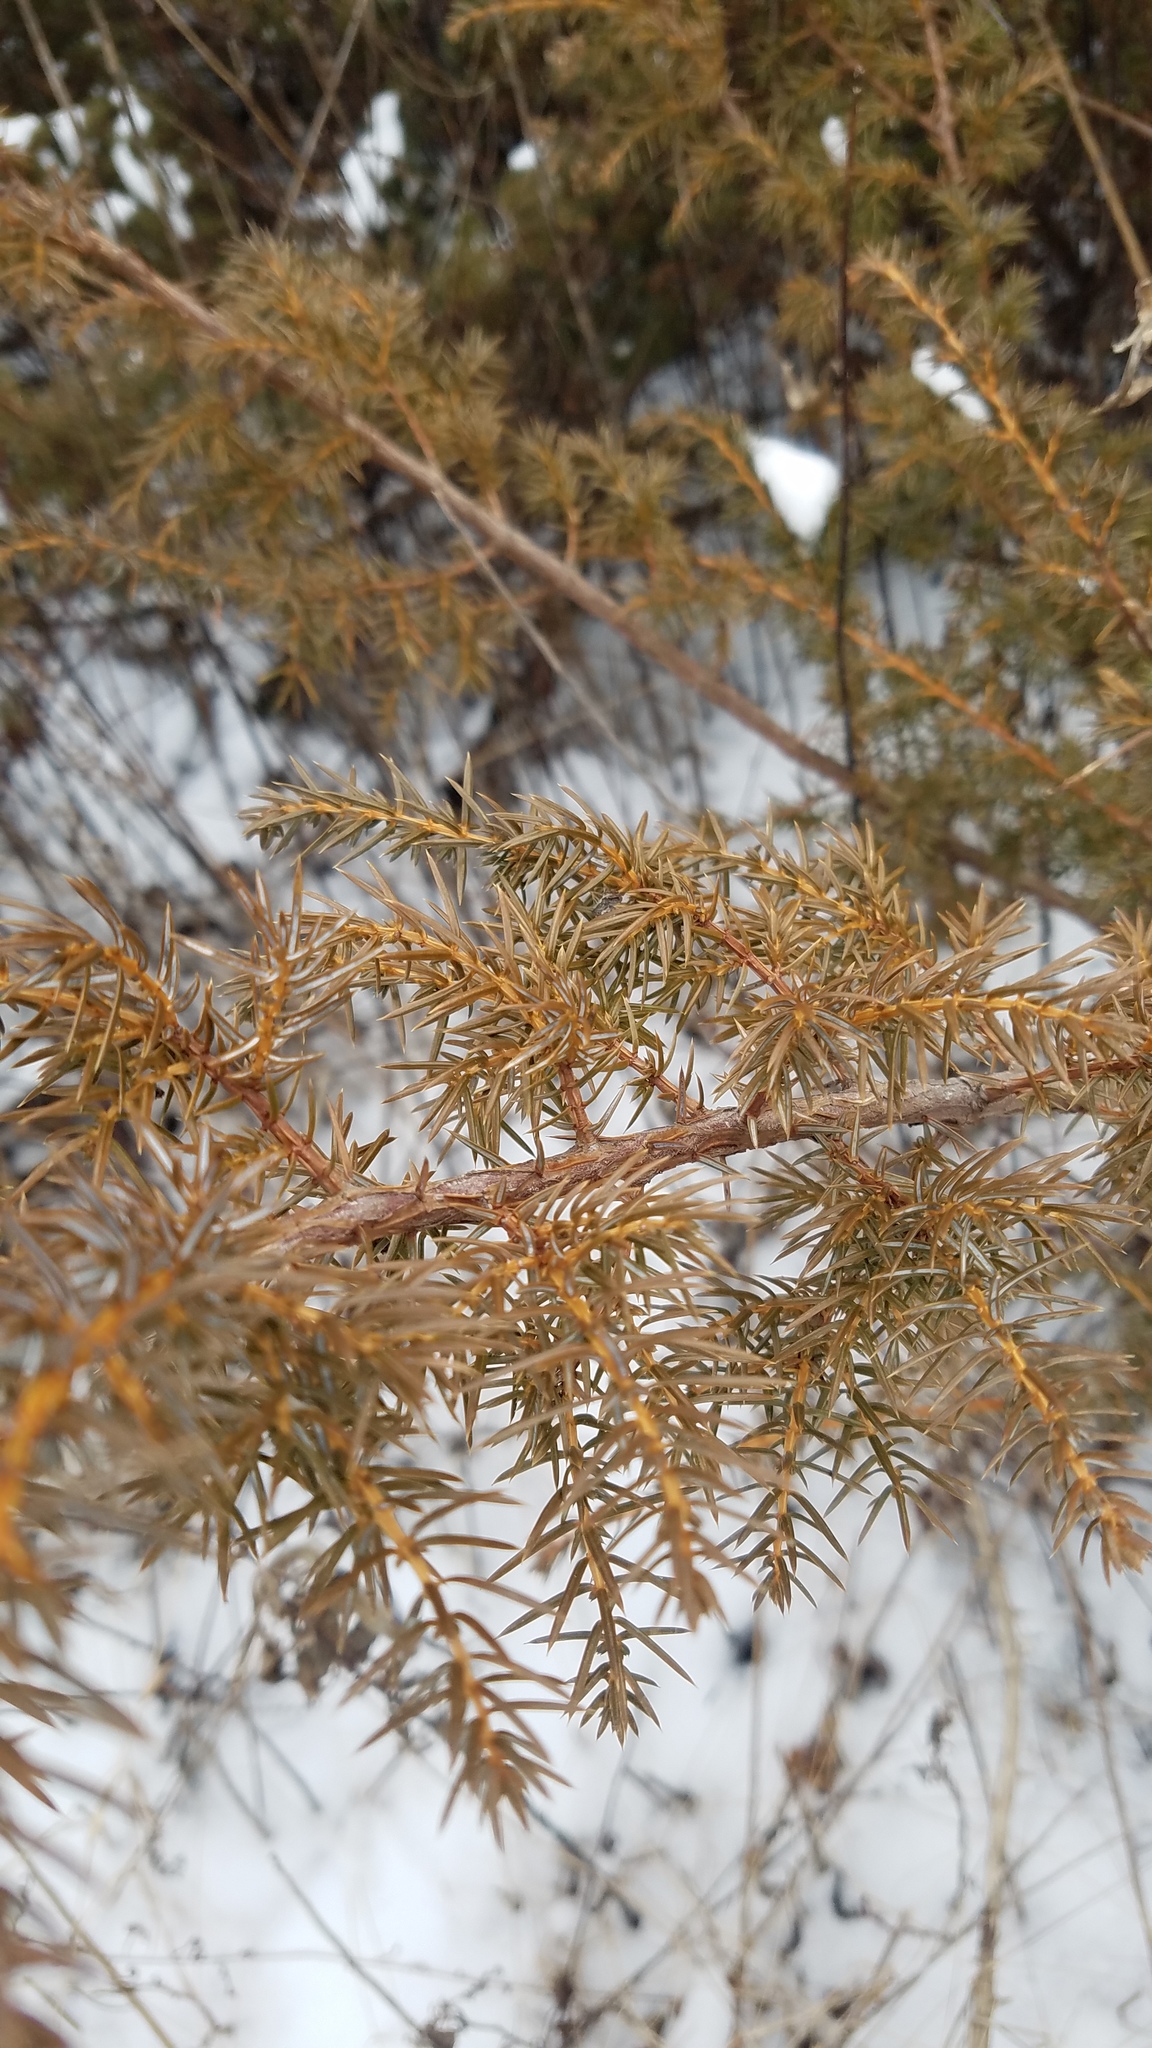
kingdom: Plantae
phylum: Tracheophyta
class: Pinopsida
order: Pinales
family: Cupressaceae
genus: Juniperus
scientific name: Juniperus communis
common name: Common juniper
